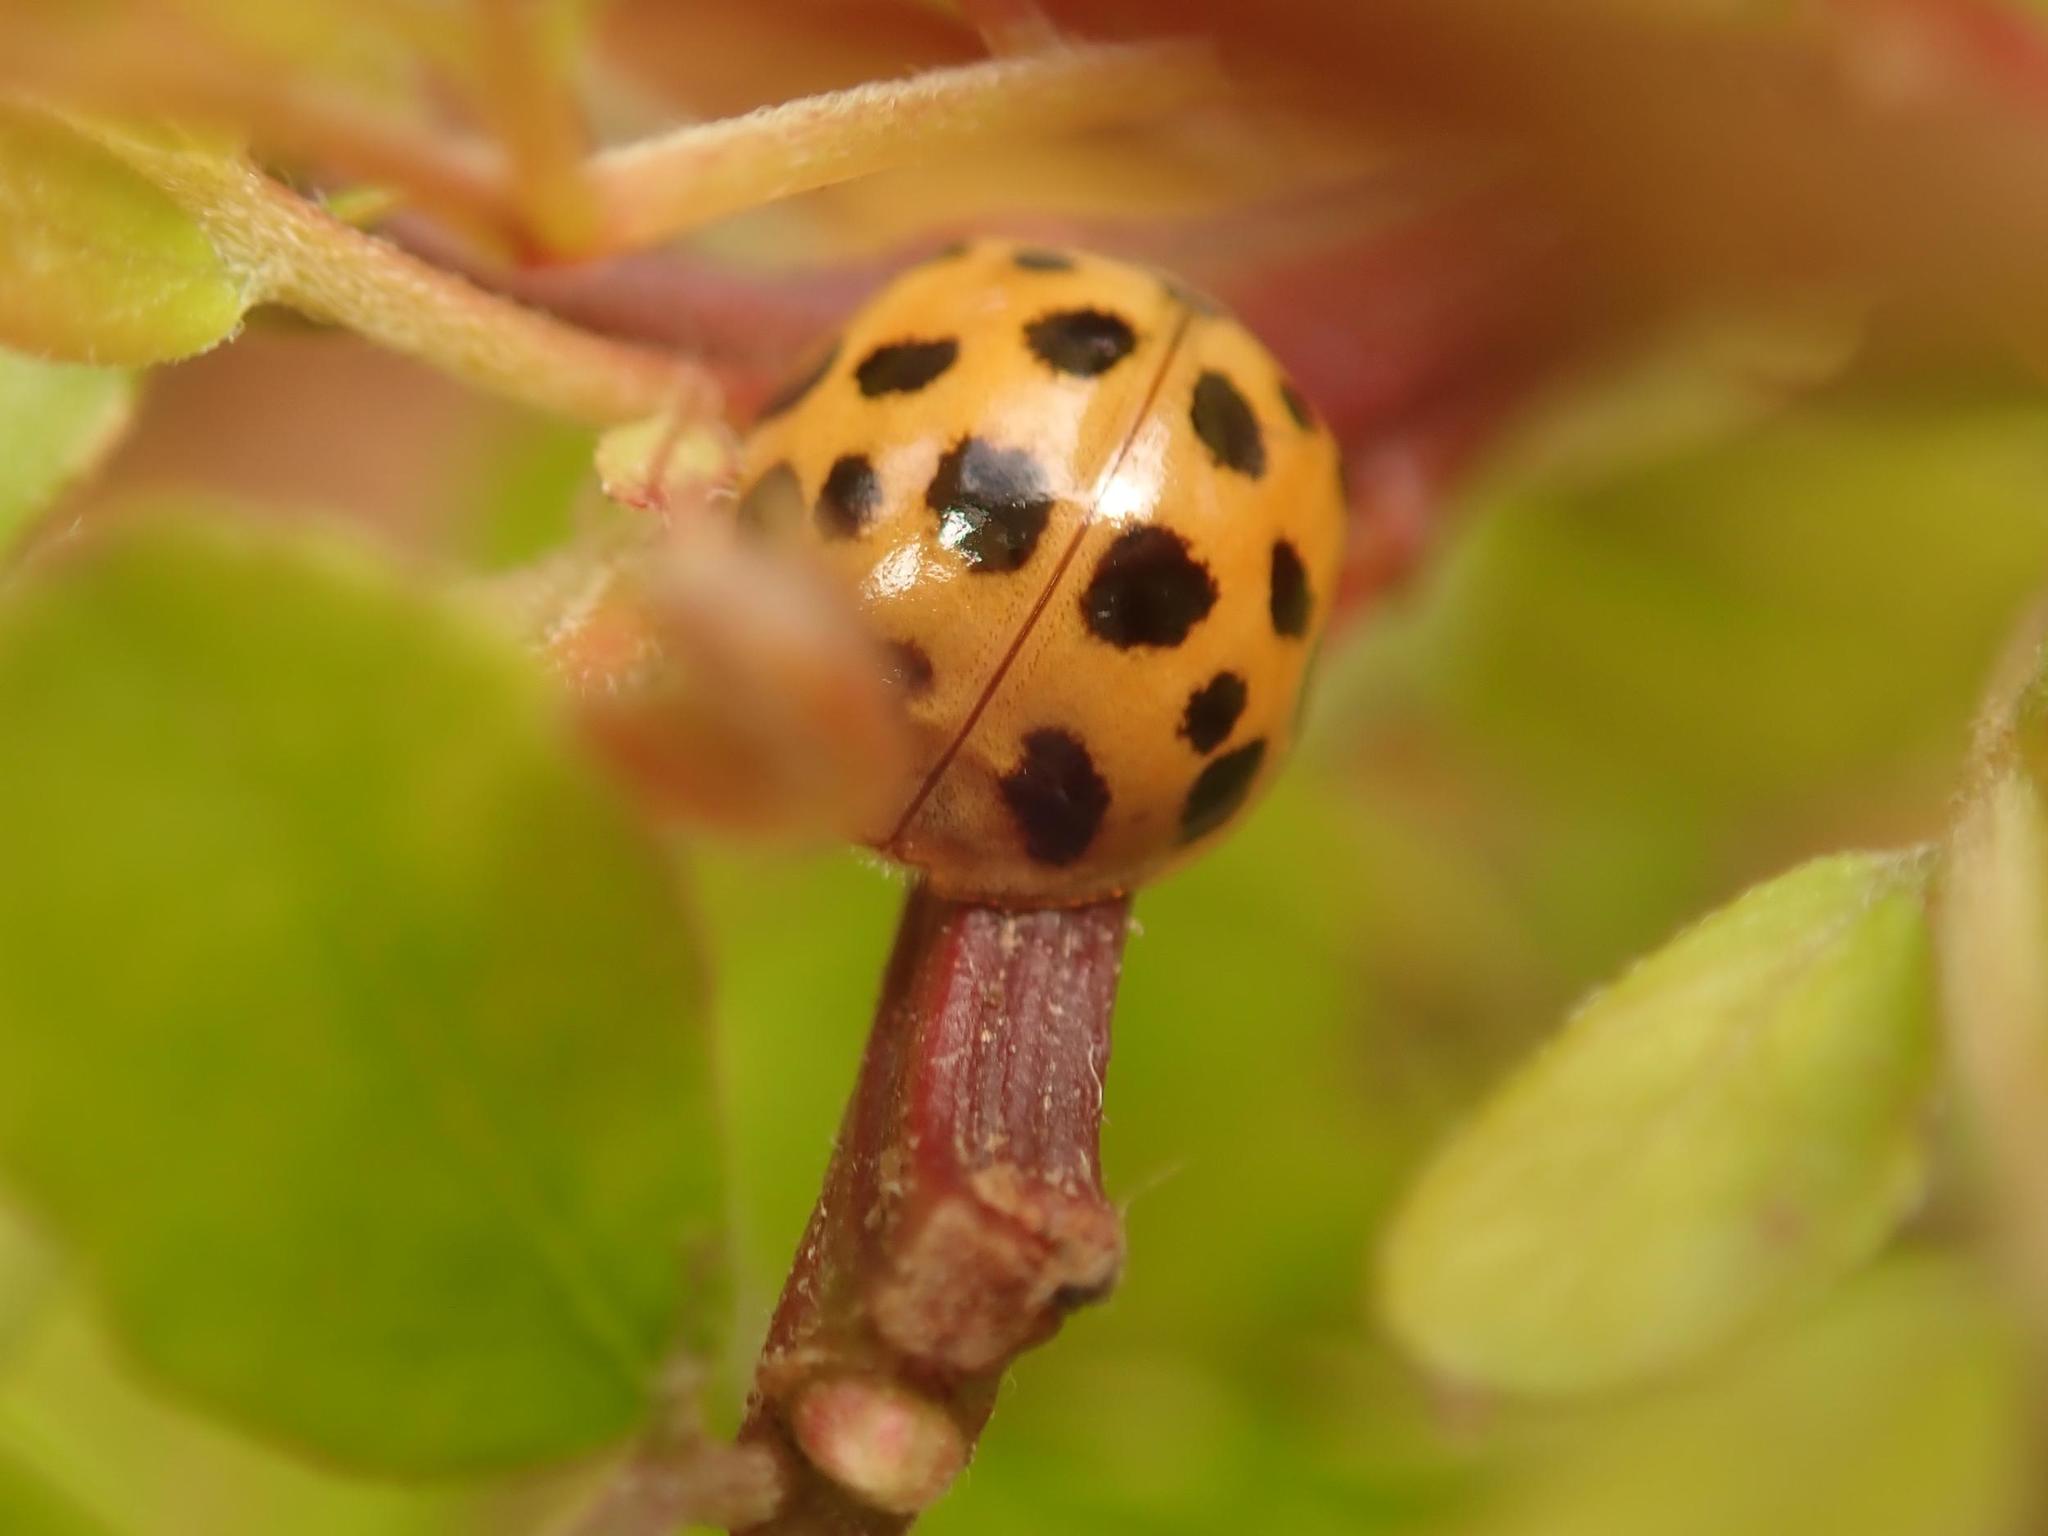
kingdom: Animalia
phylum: Arthropoda
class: Insecta
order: Coleoptera
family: Coccinellidae
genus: Harmonia
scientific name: Harmonia axyridis
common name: Harlequin ladybird
